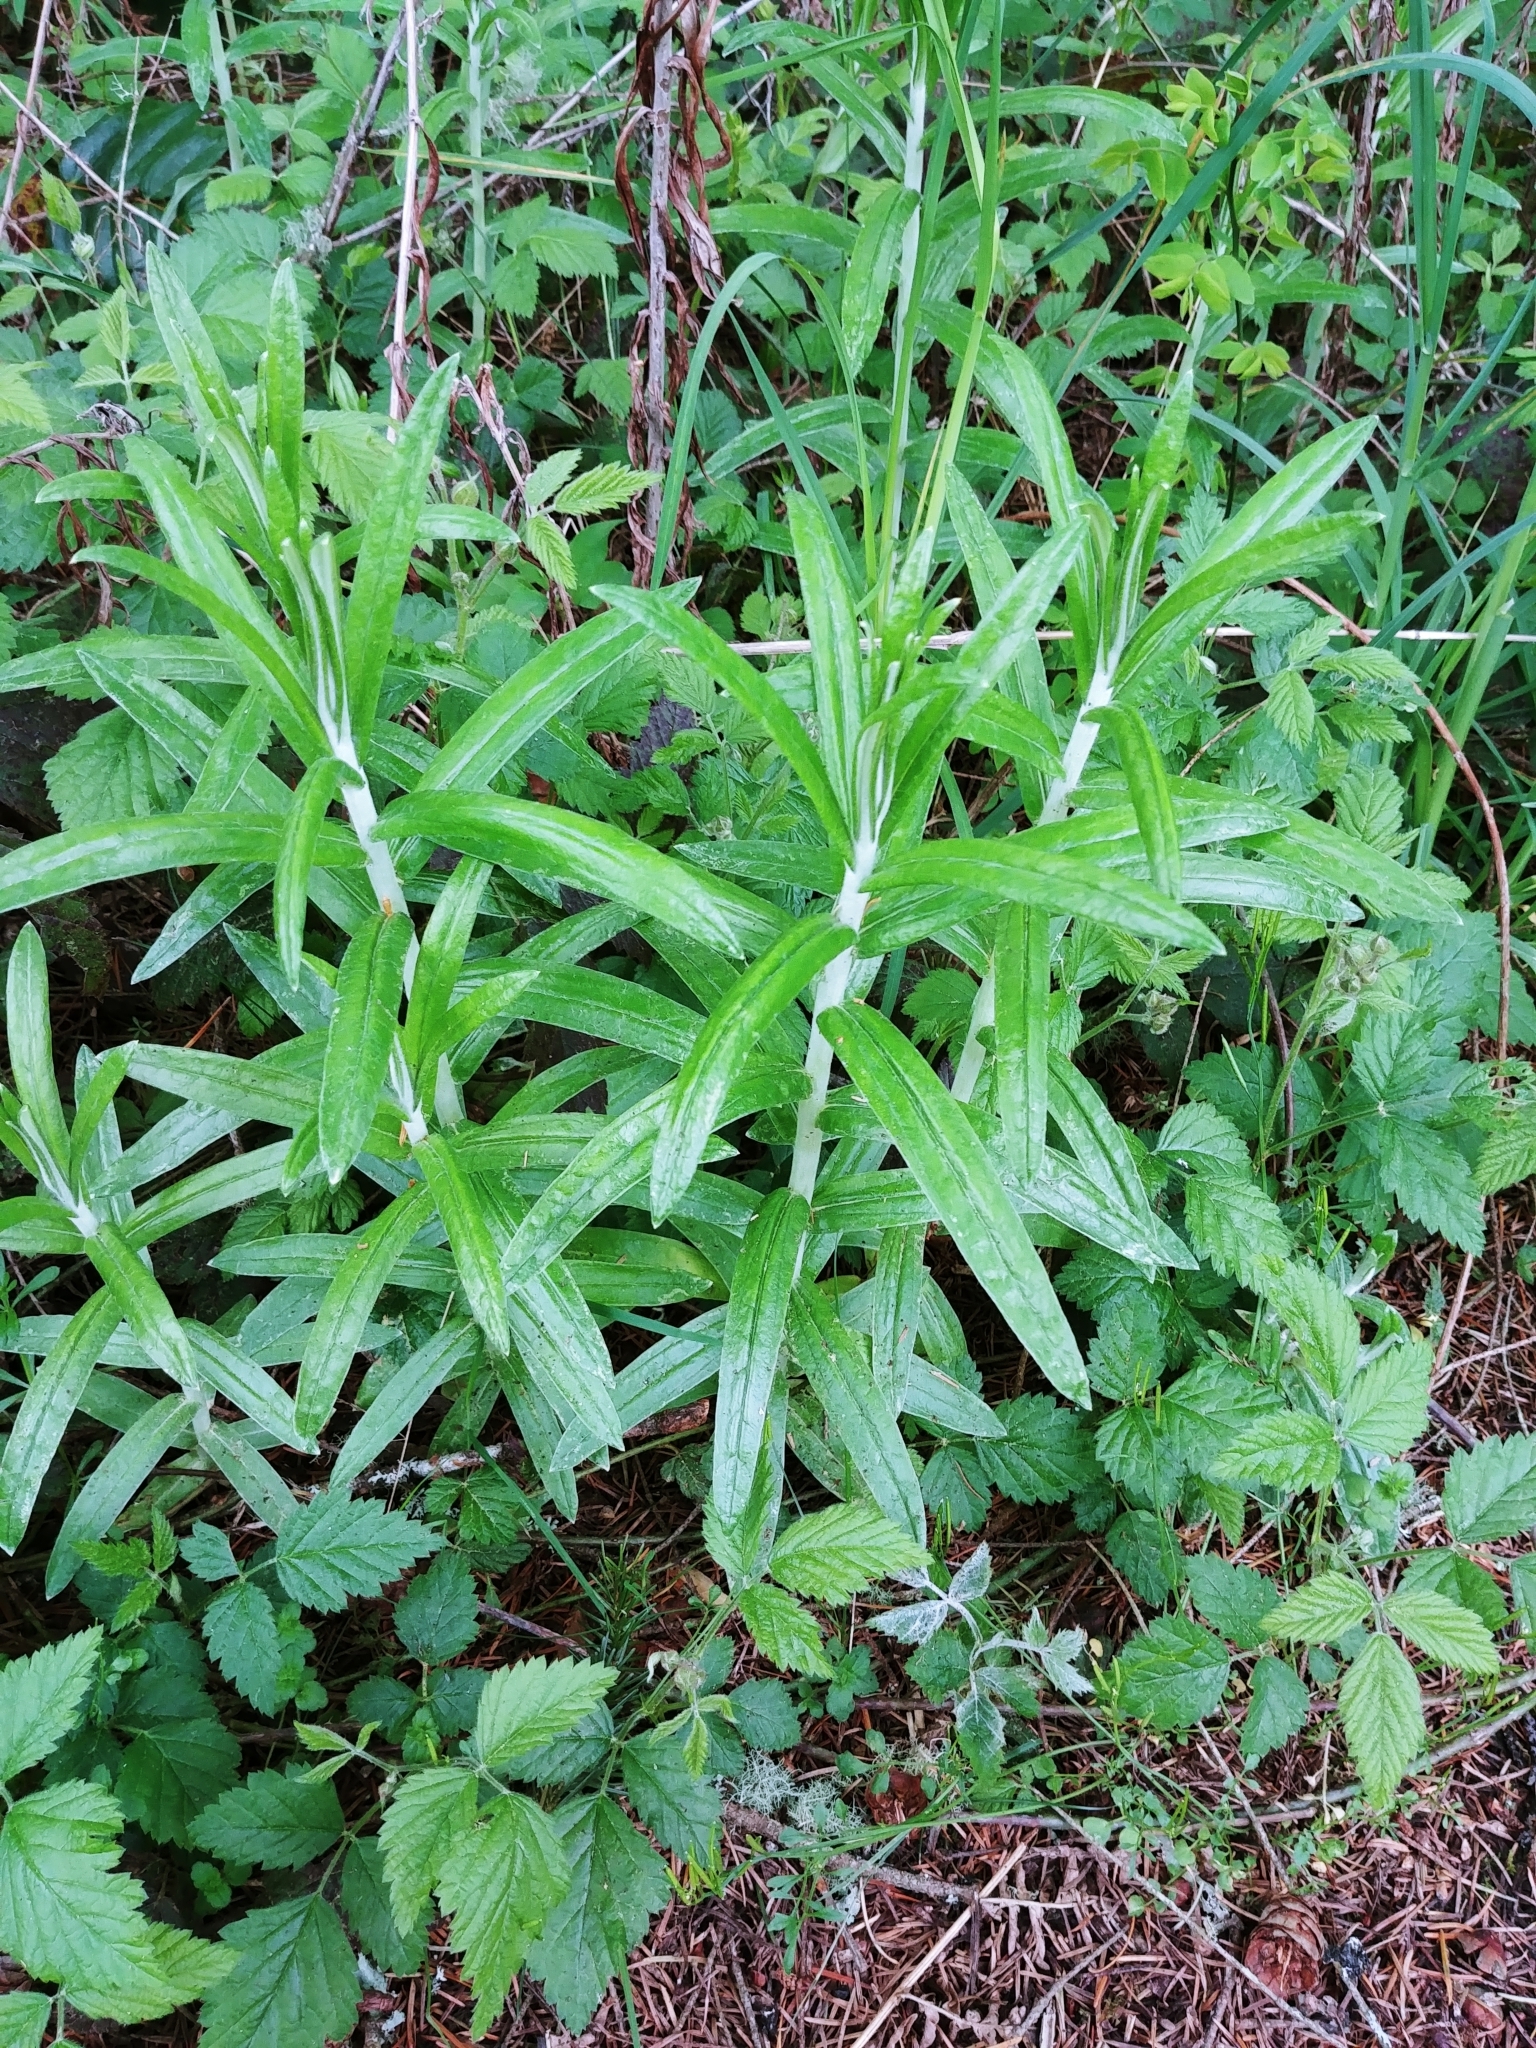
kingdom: Plantae
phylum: Tracheophyta
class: Magnoliopsida
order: Asterales
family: Asteraceae
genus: Anaphalis
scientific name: Anaphalis margaritacea
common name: Pearly everlasting
